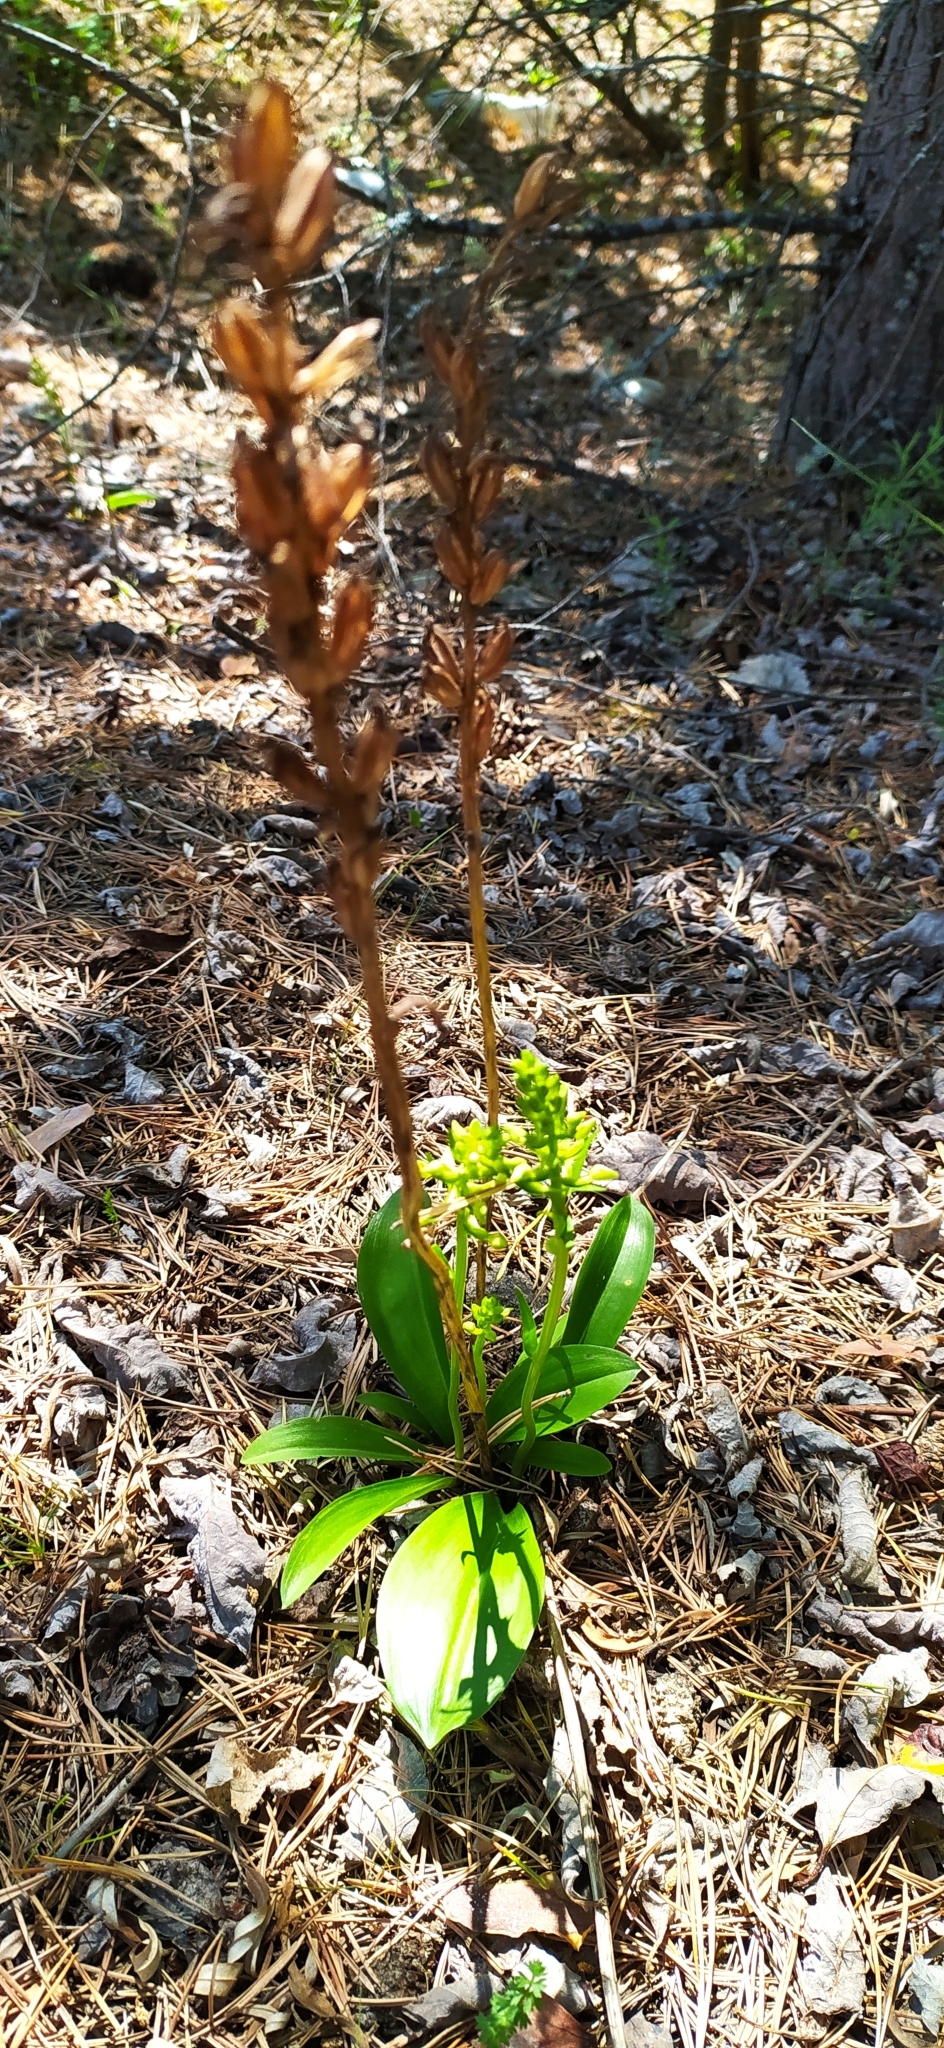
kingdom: Plantae
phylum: Tracheophyta
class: Liliopsida
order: Asparagales
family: Orchidaceae
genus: Platanthera
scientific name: Platanthera bifolia
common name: Lesser butterfly-orchid
